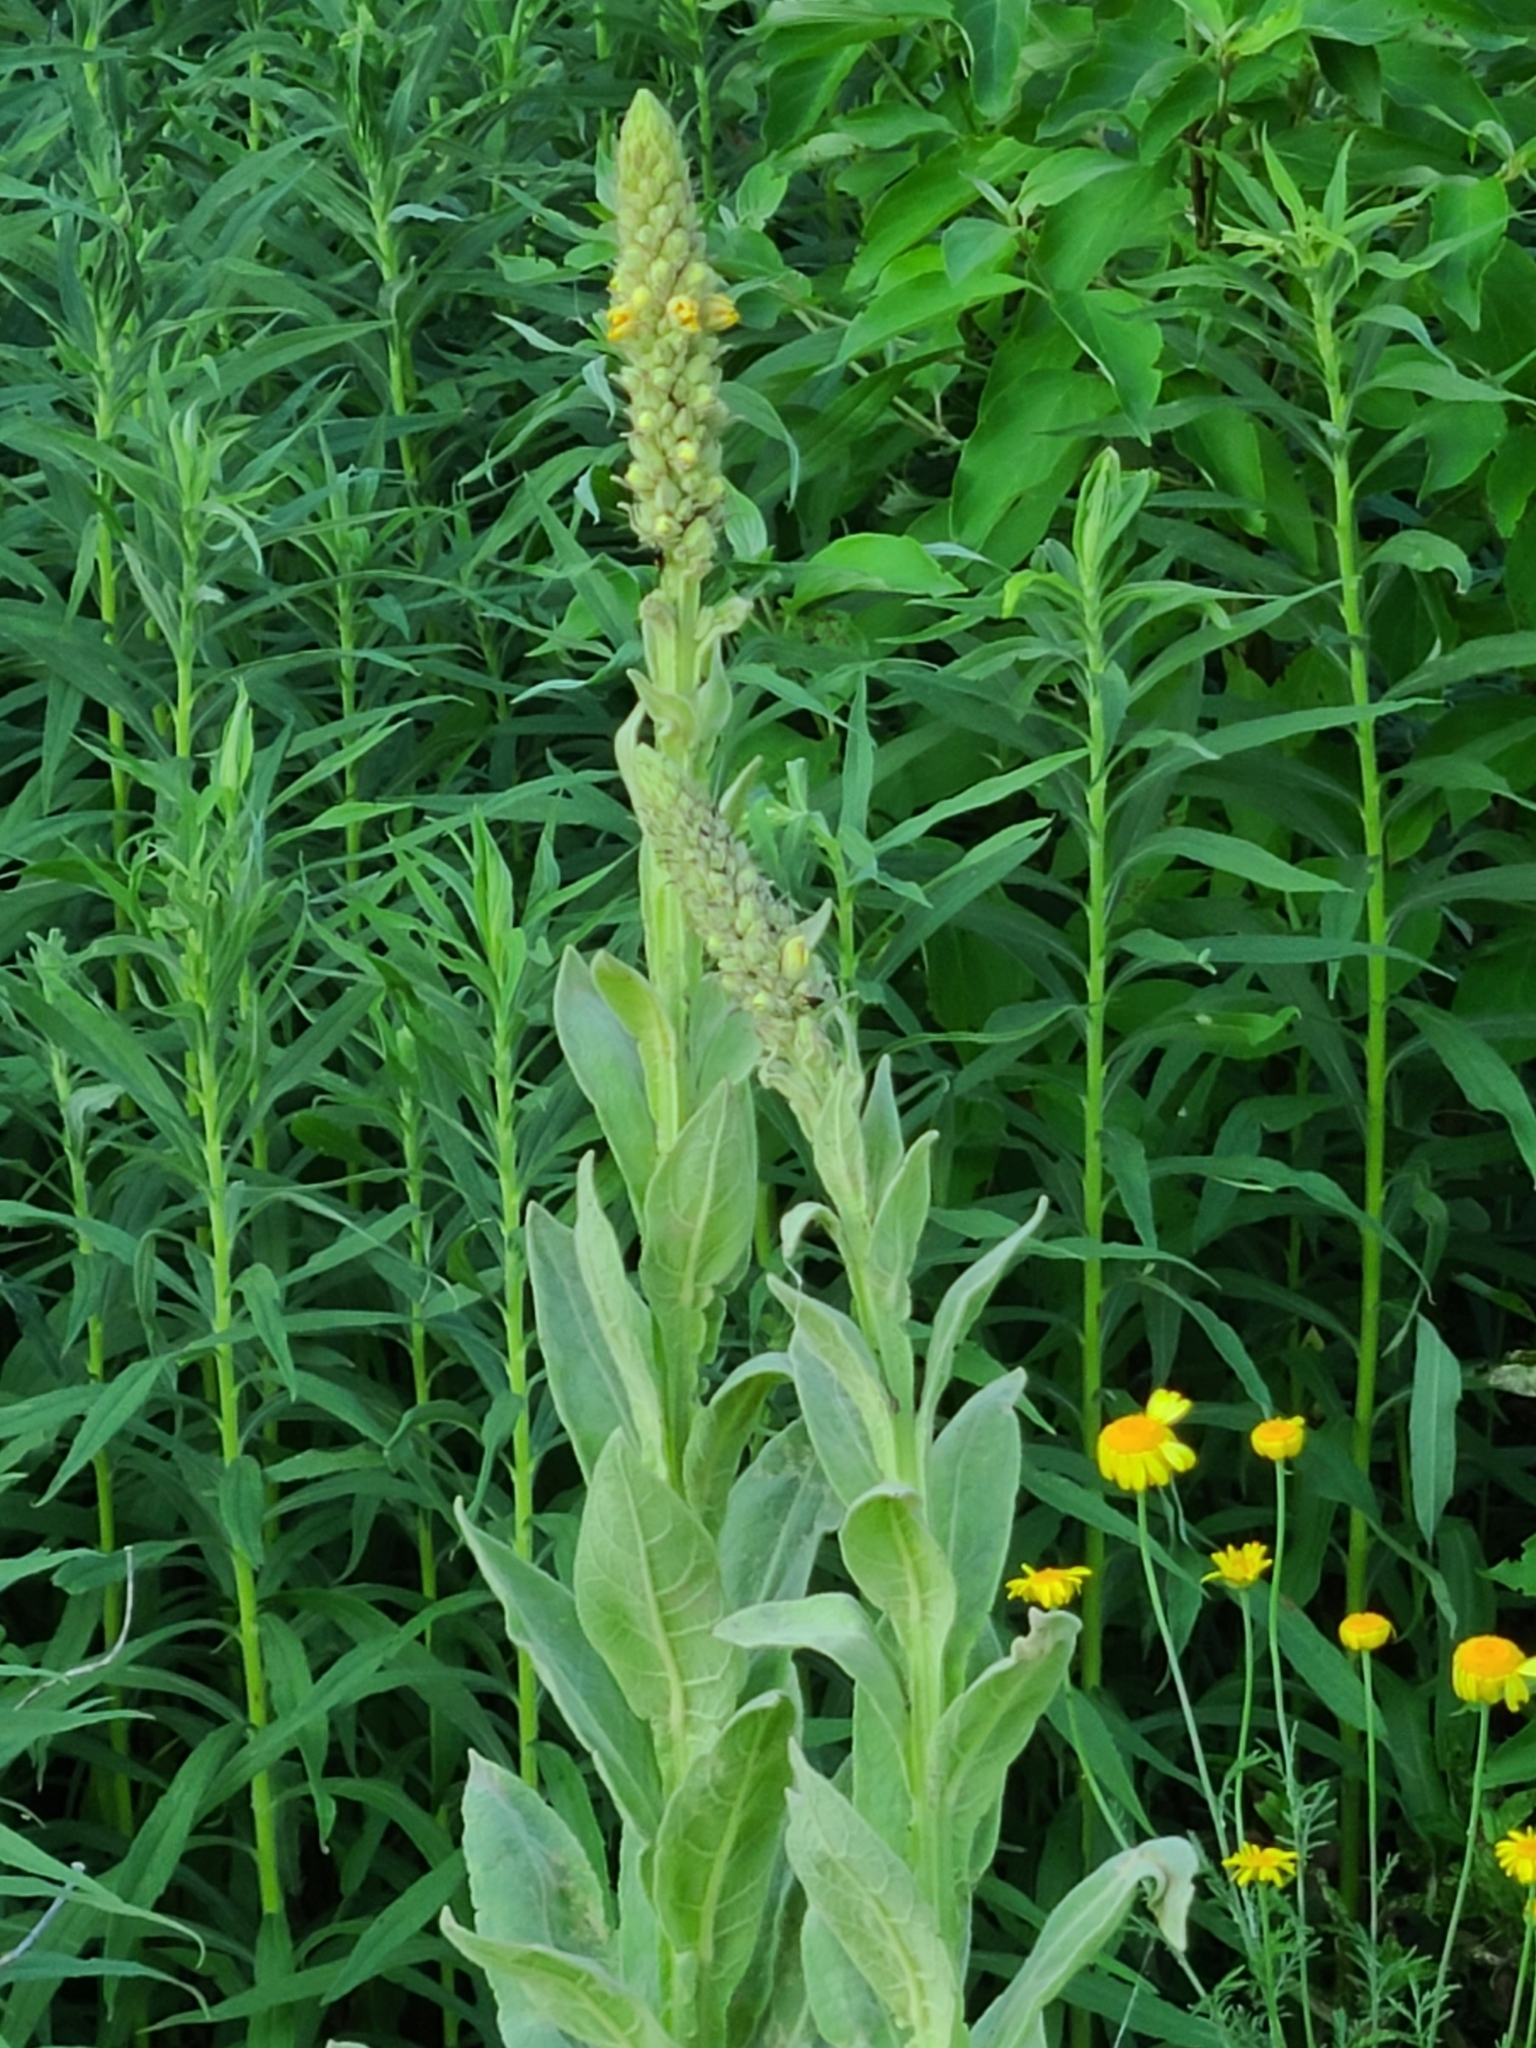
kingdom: Plantae
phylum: Tracheophyta
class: Magnoliopsida
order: Lamiales
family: Scrophulariaceae
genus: Verbascum
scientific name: Verbascum thapsus
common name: Common mullein
